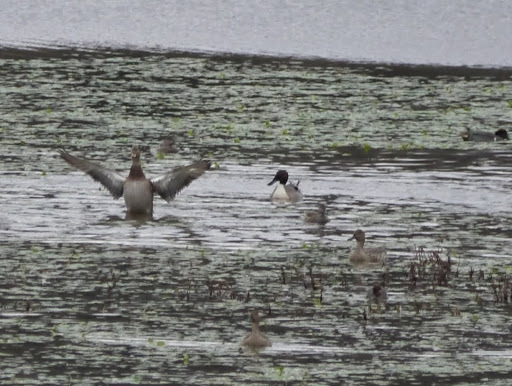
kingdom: Animalia
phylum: Chordata
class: Aves
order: Anseriformes
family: Anatidae
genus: Anas
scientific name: Anas acuta
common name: Northern pintail
